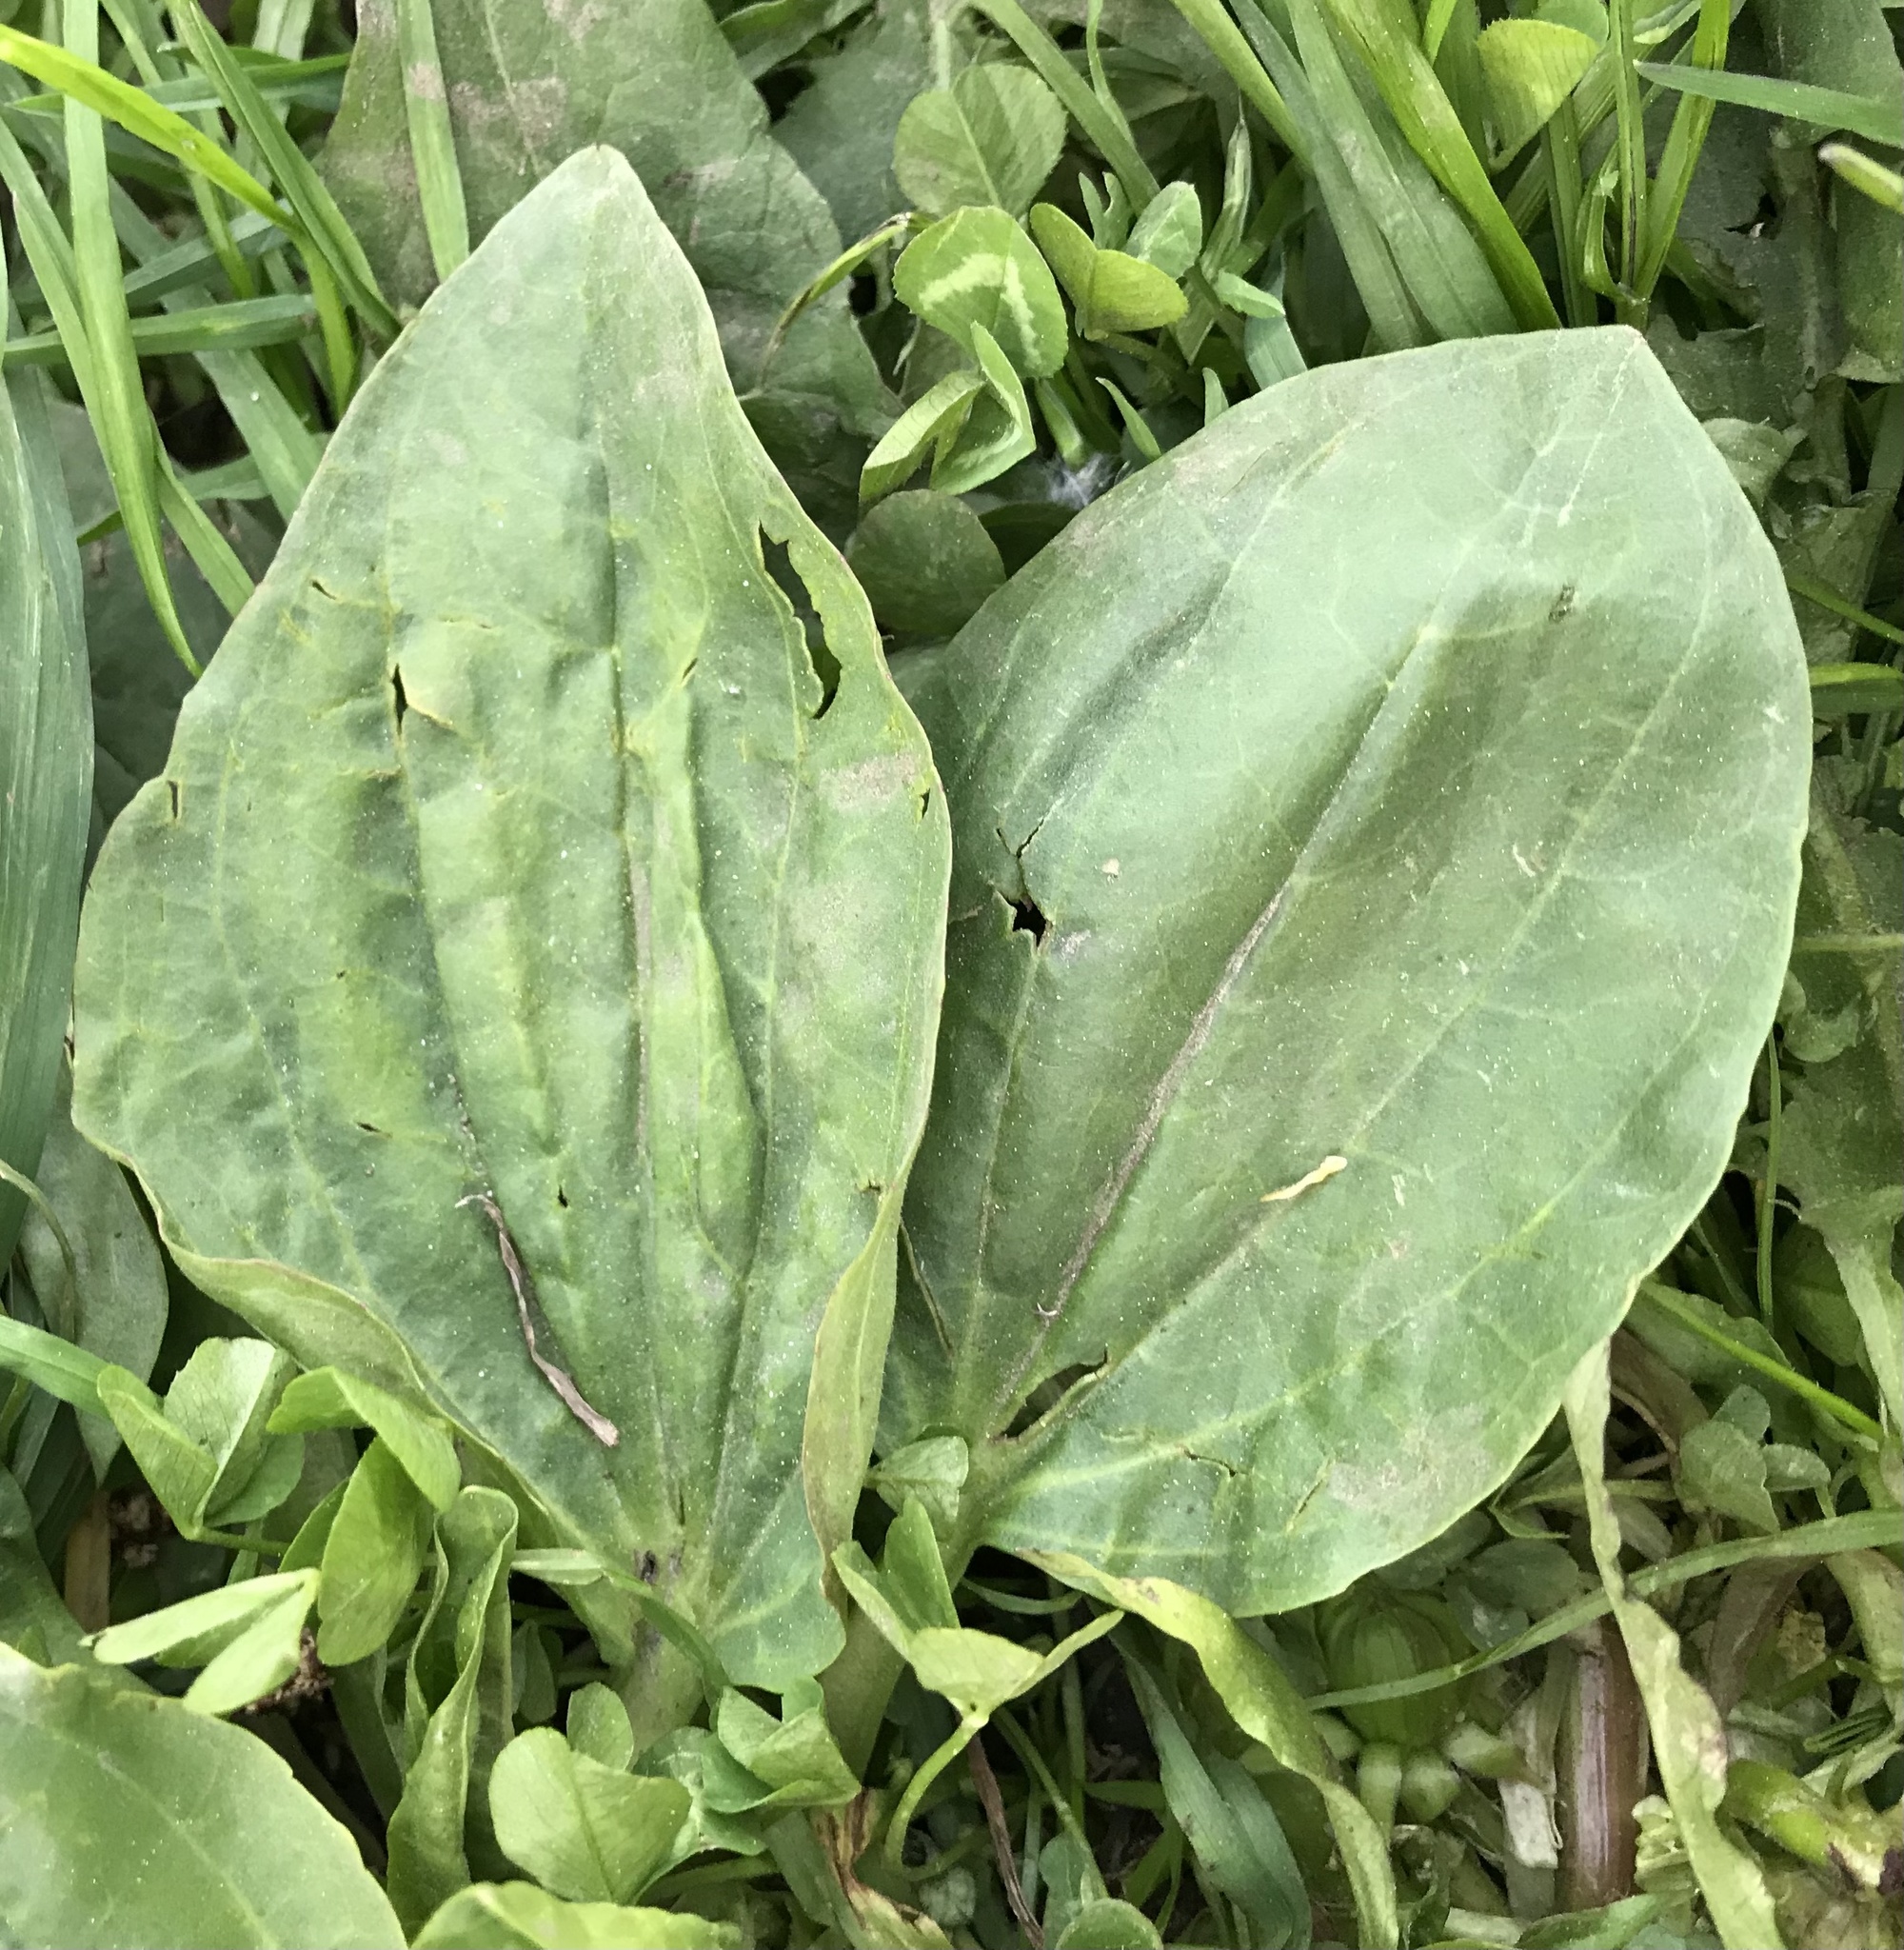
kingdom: Plantae
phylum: Tracheophyta
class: Magnoliopsida
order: Lamiales
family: Plantaginaceae
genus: Plantago
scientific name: Plantago major
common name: Common plantain
